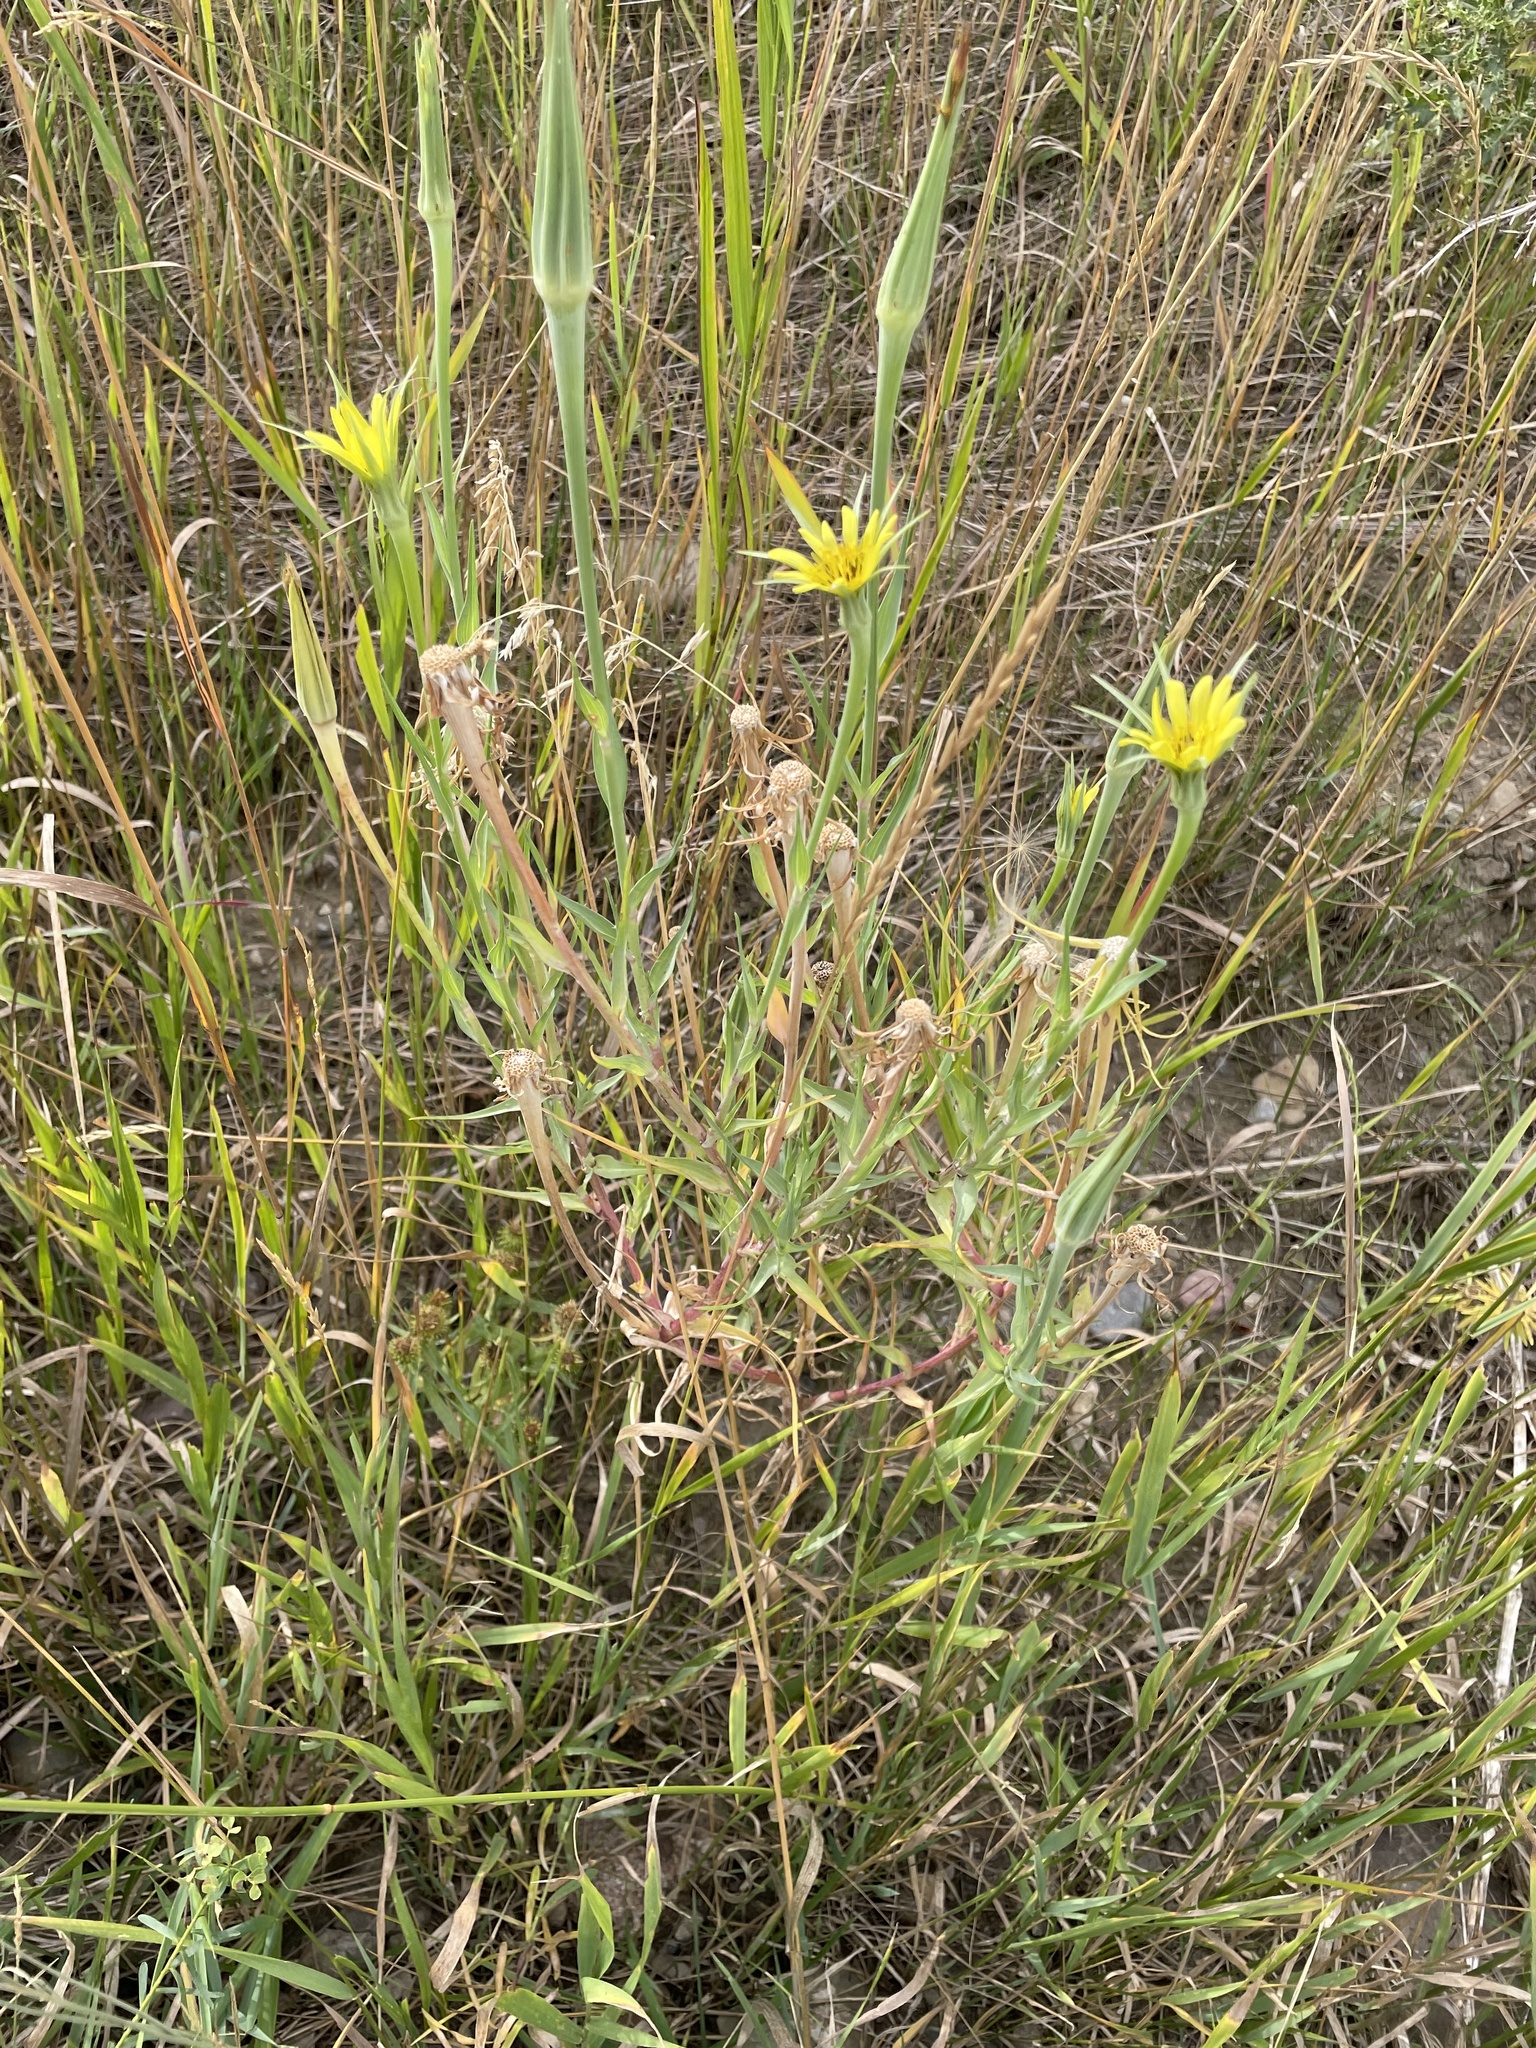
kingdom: Plantae
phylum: Tracheophyta
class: Magnoliopsida
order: Asterales
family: Asteraceae
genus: Tragopogon
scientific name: Tragopogon dubius
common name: Yellow salsify
